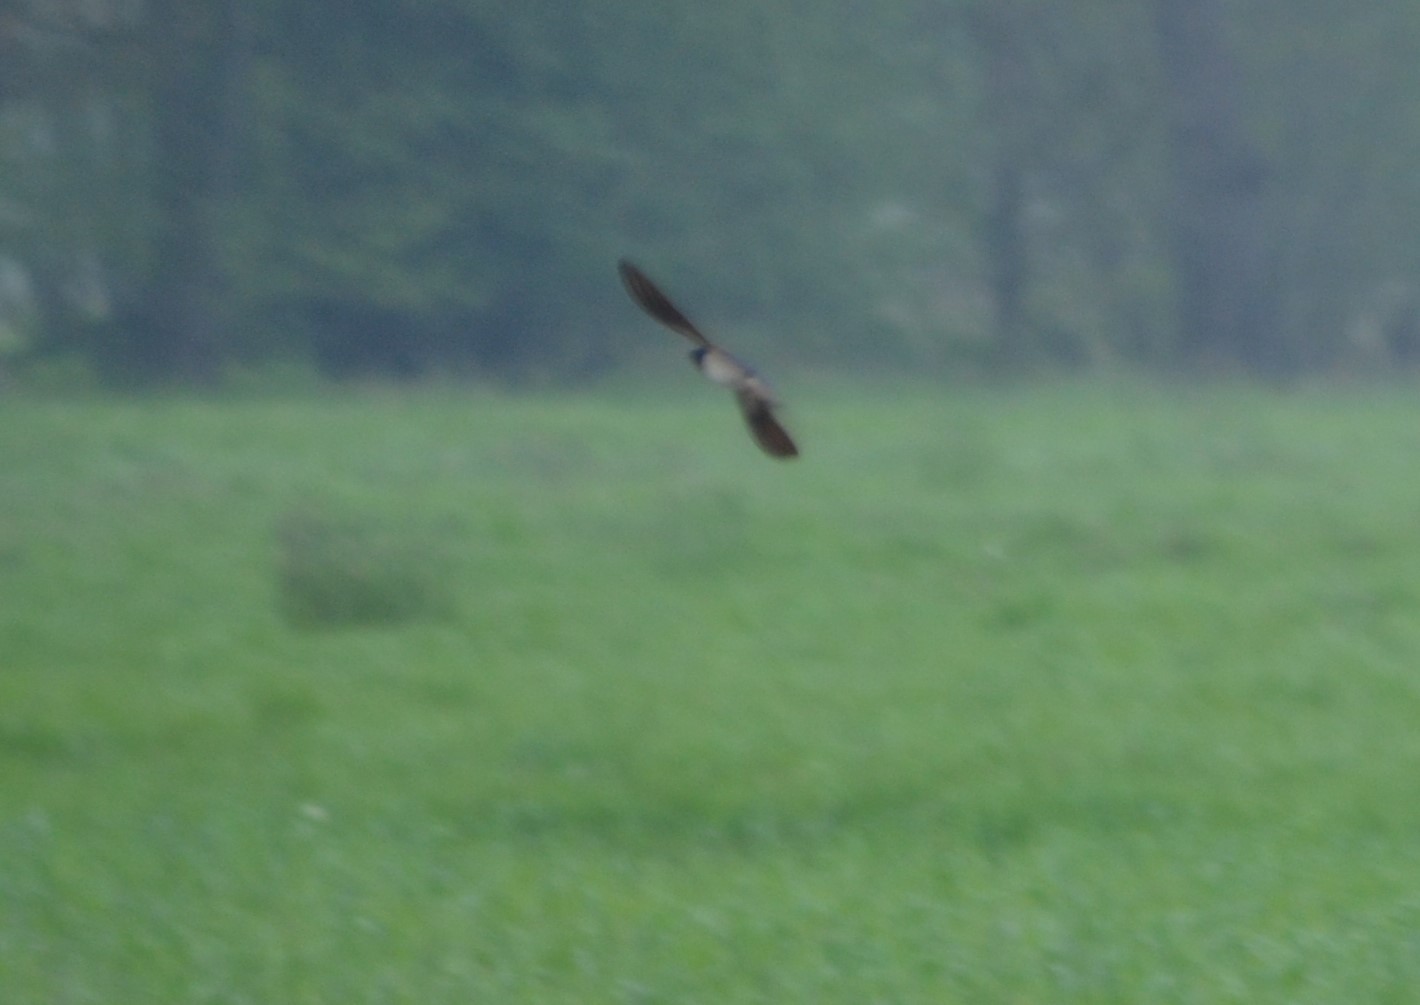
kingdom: Animalia
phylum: Chordata
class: Aves
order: Passeriformes
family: Hirundinidae
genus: Hirundo
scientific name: Hirundo rustica
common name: Barn swallow
